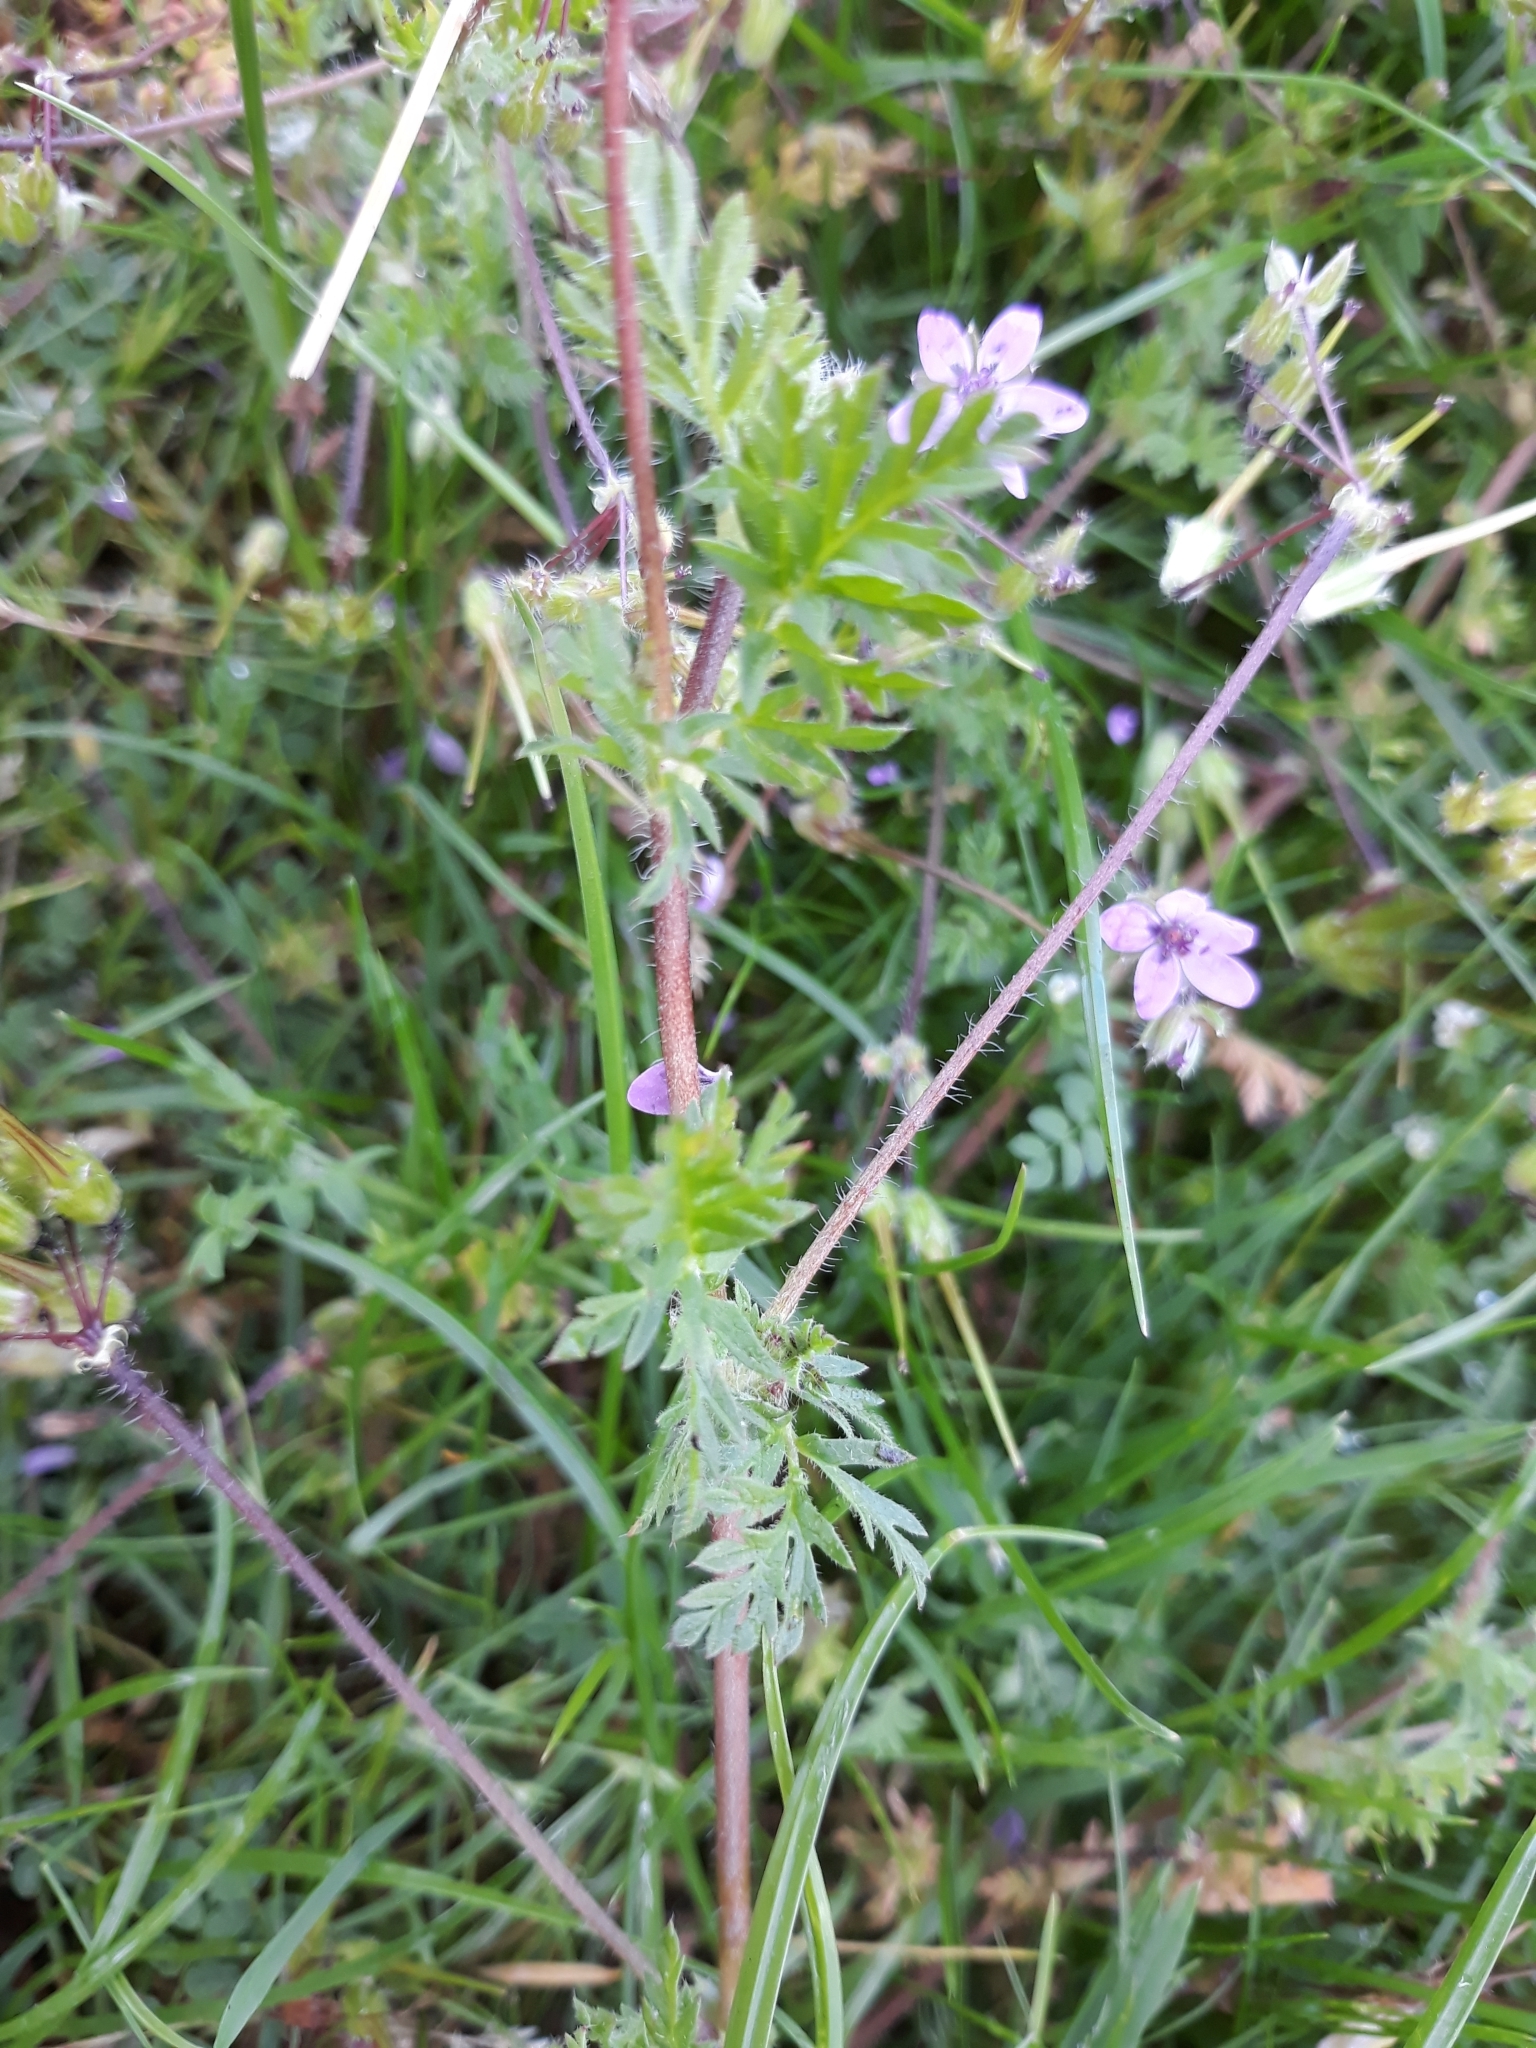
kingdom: Plantae
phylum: Tracheophyta
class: Magnoliopsida
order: Geraniales
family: Geraniaceae
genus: Erodium
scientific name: Erodium cicutarium
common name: Common stork's-bill
